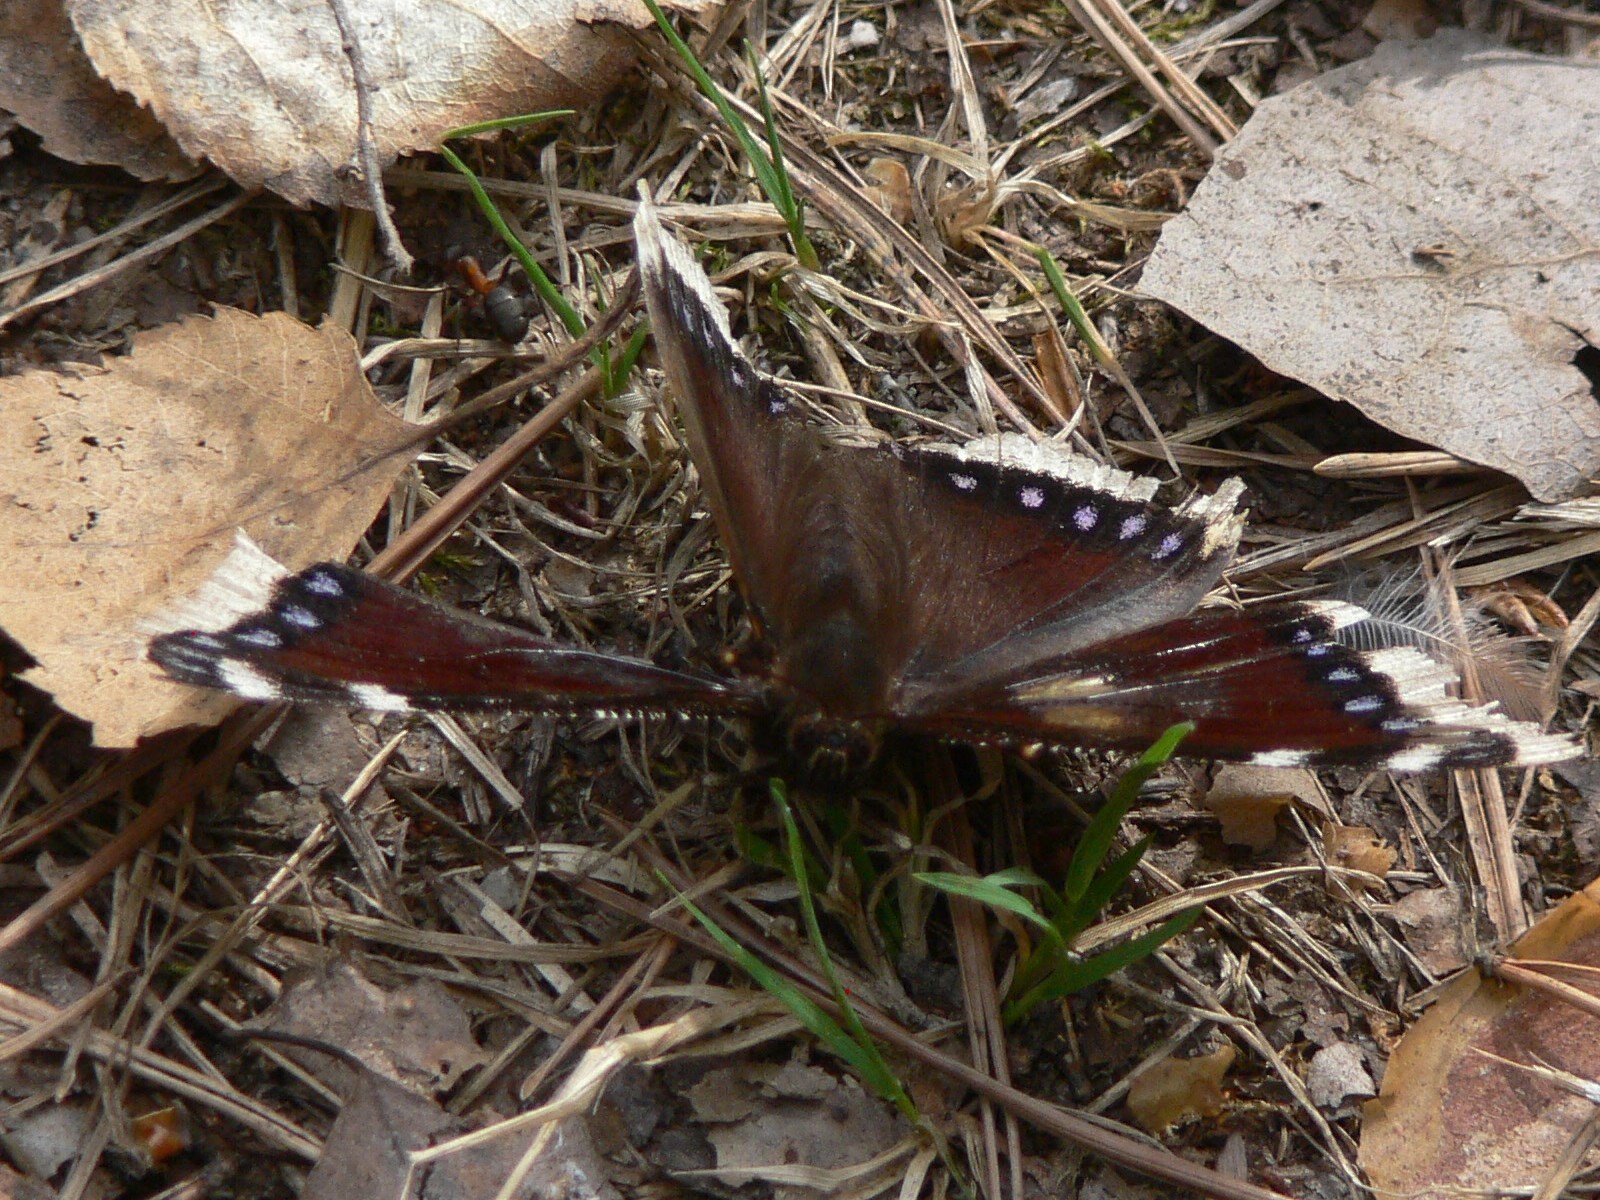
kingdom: Animalia
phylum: Arthropoda
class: Insecta
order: Lepidoptera
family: Nymphalidae
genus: Nymphalis
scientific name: Nymphalis antiopa
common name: Camberwell beauty
